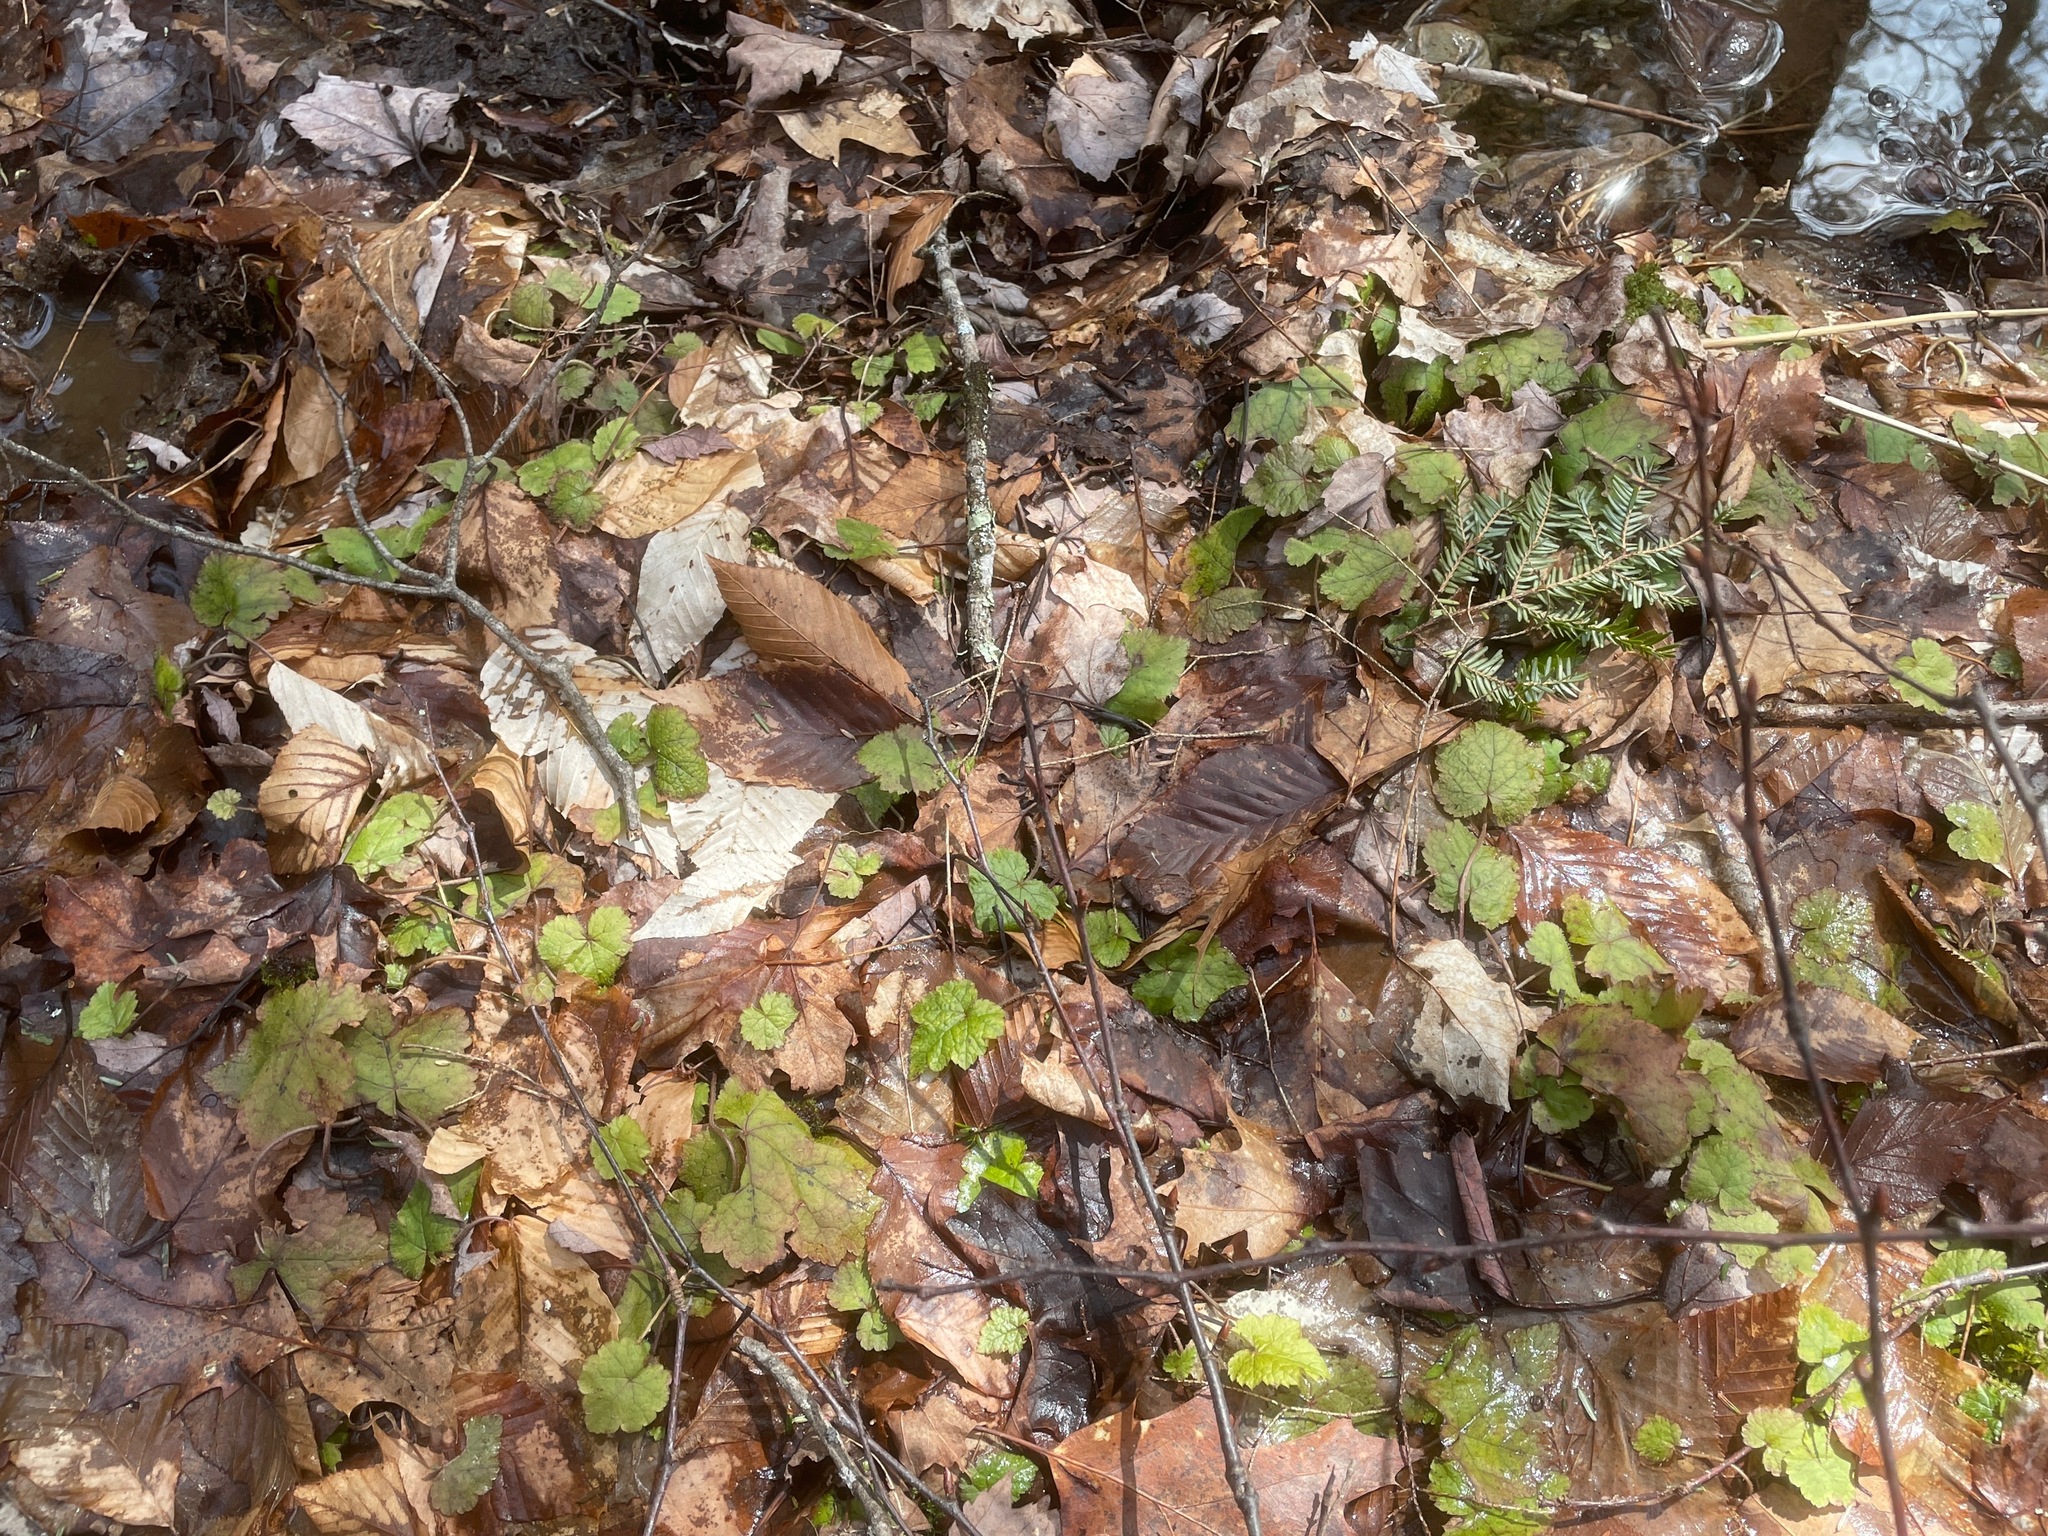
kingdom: Plantae
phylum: Tracheophyta
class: Magnoliopsida
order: Saxifragales
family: Saxifragaceae
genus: Tiarella
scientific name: Tiarella stolonifera
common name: Stoloniferous foamflower
